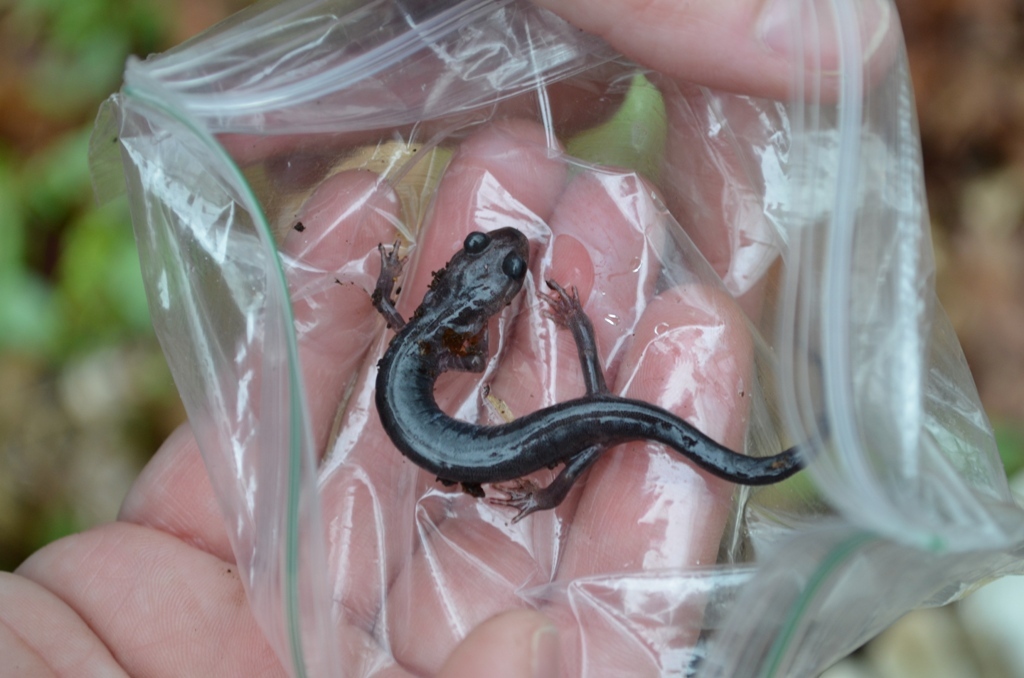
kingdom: Animalia
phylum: Chordata
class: Amphibia
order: Caudata
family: Plethodontidae
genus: Plethodon
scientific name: Plethodon montanus
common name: Northern gray-cheeked salamander
